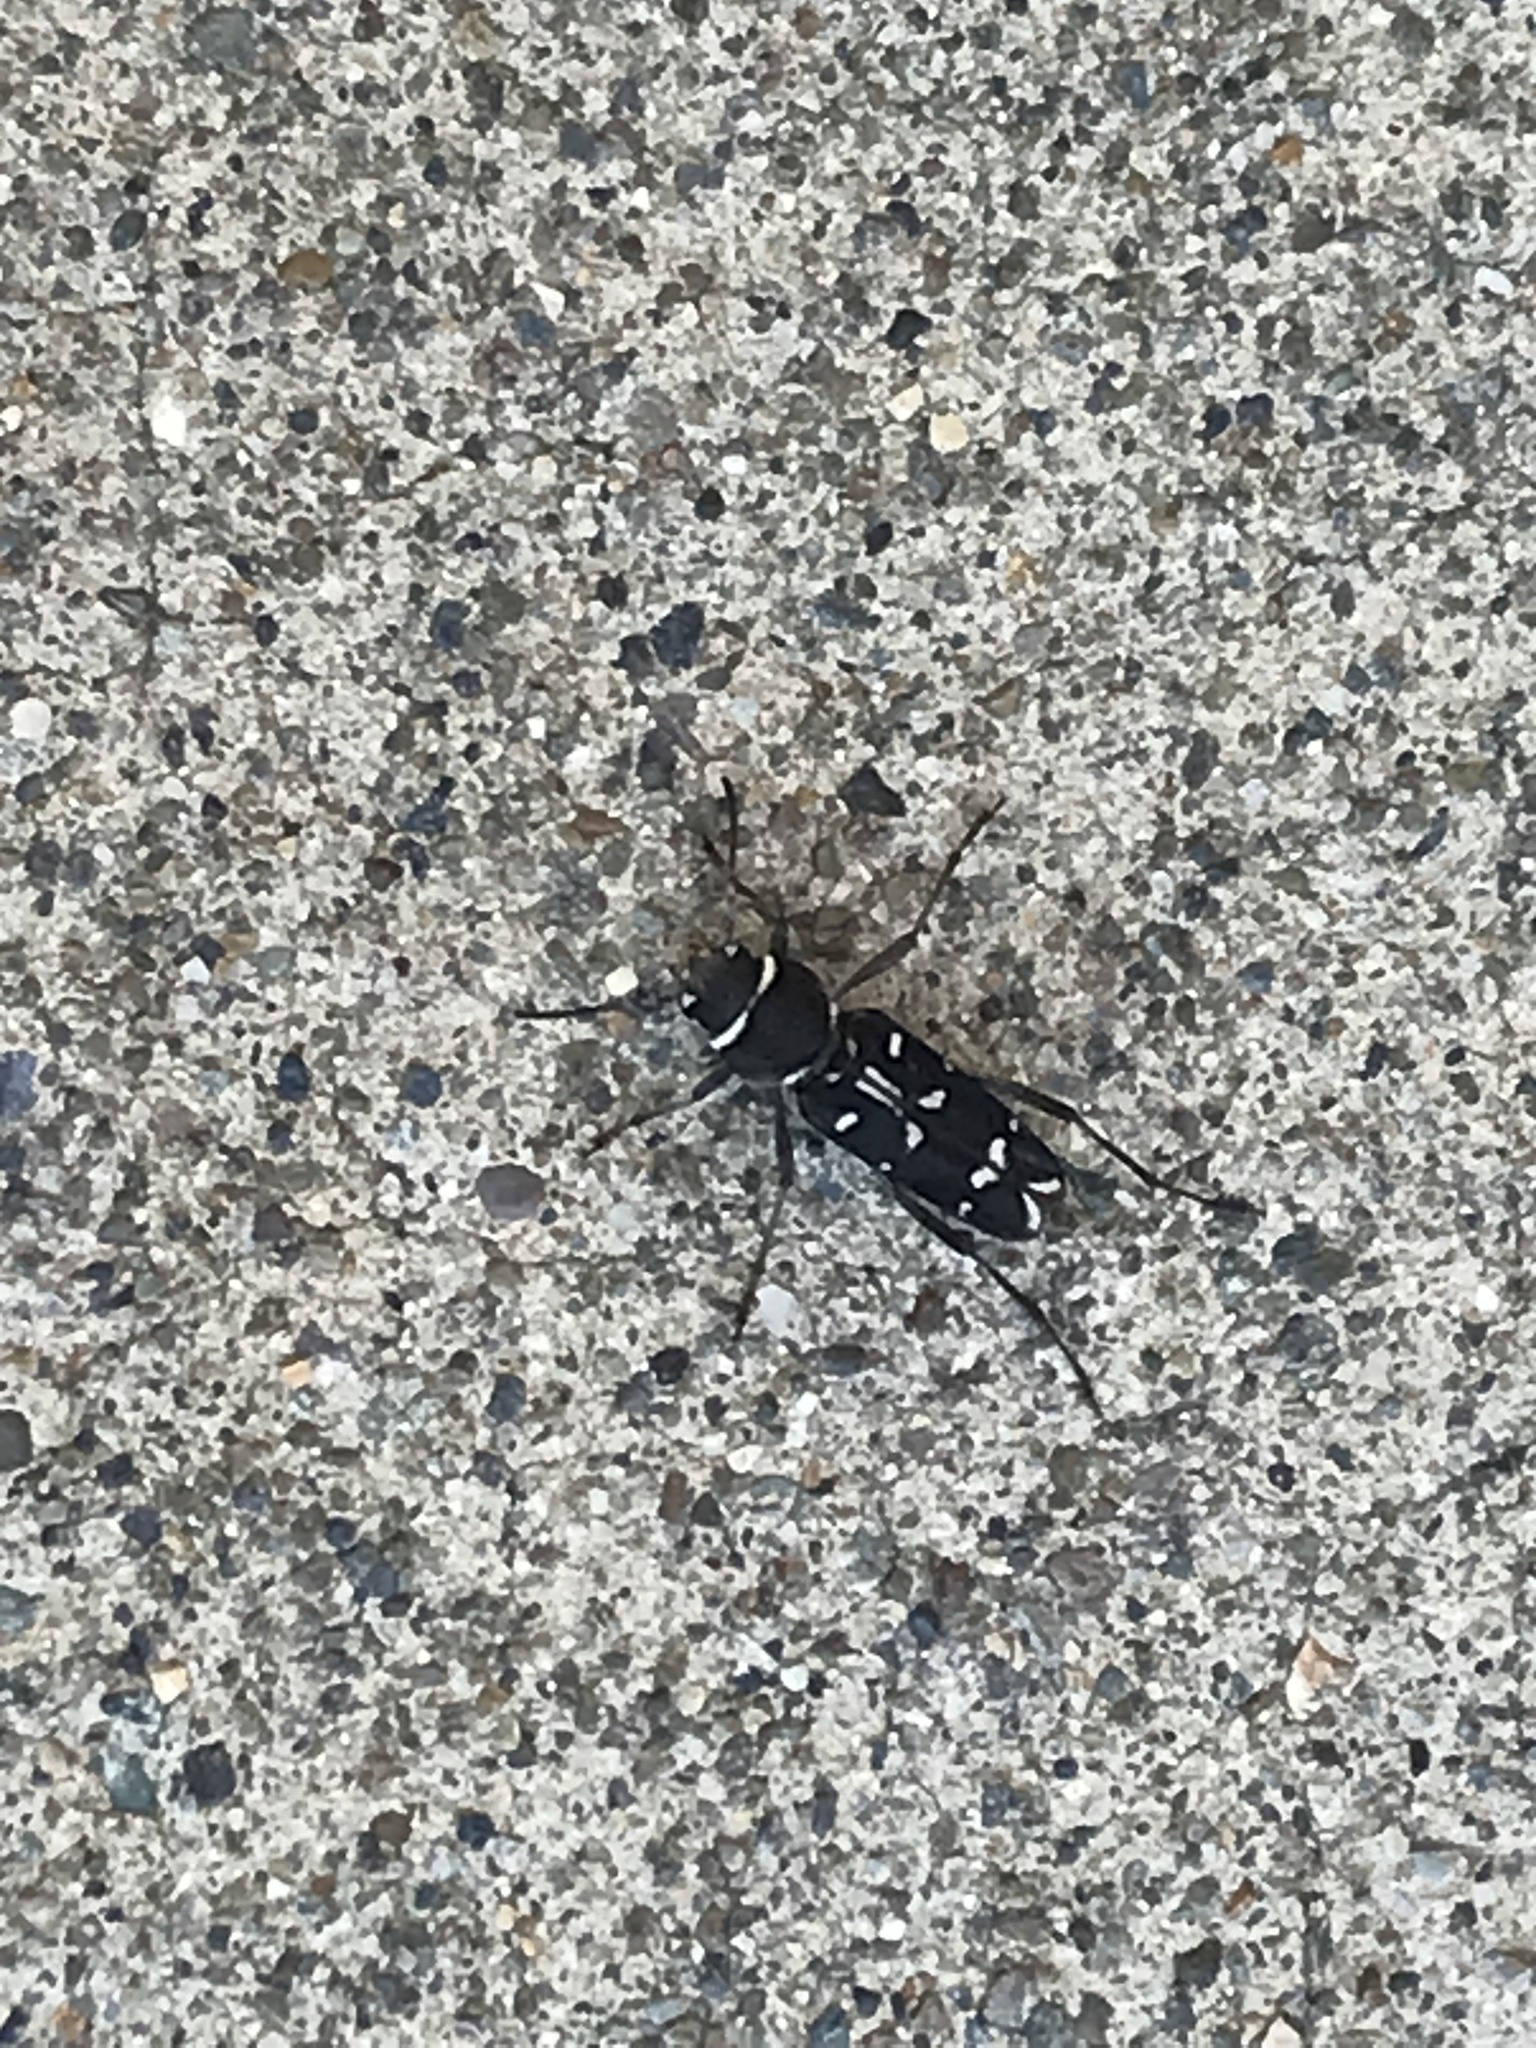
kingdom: Animalia
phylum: Arthropoda
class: Insecta
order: Coleoptera
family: Cerambycidae
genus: Xylotrechus
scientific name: Xylotrechus undulatus
